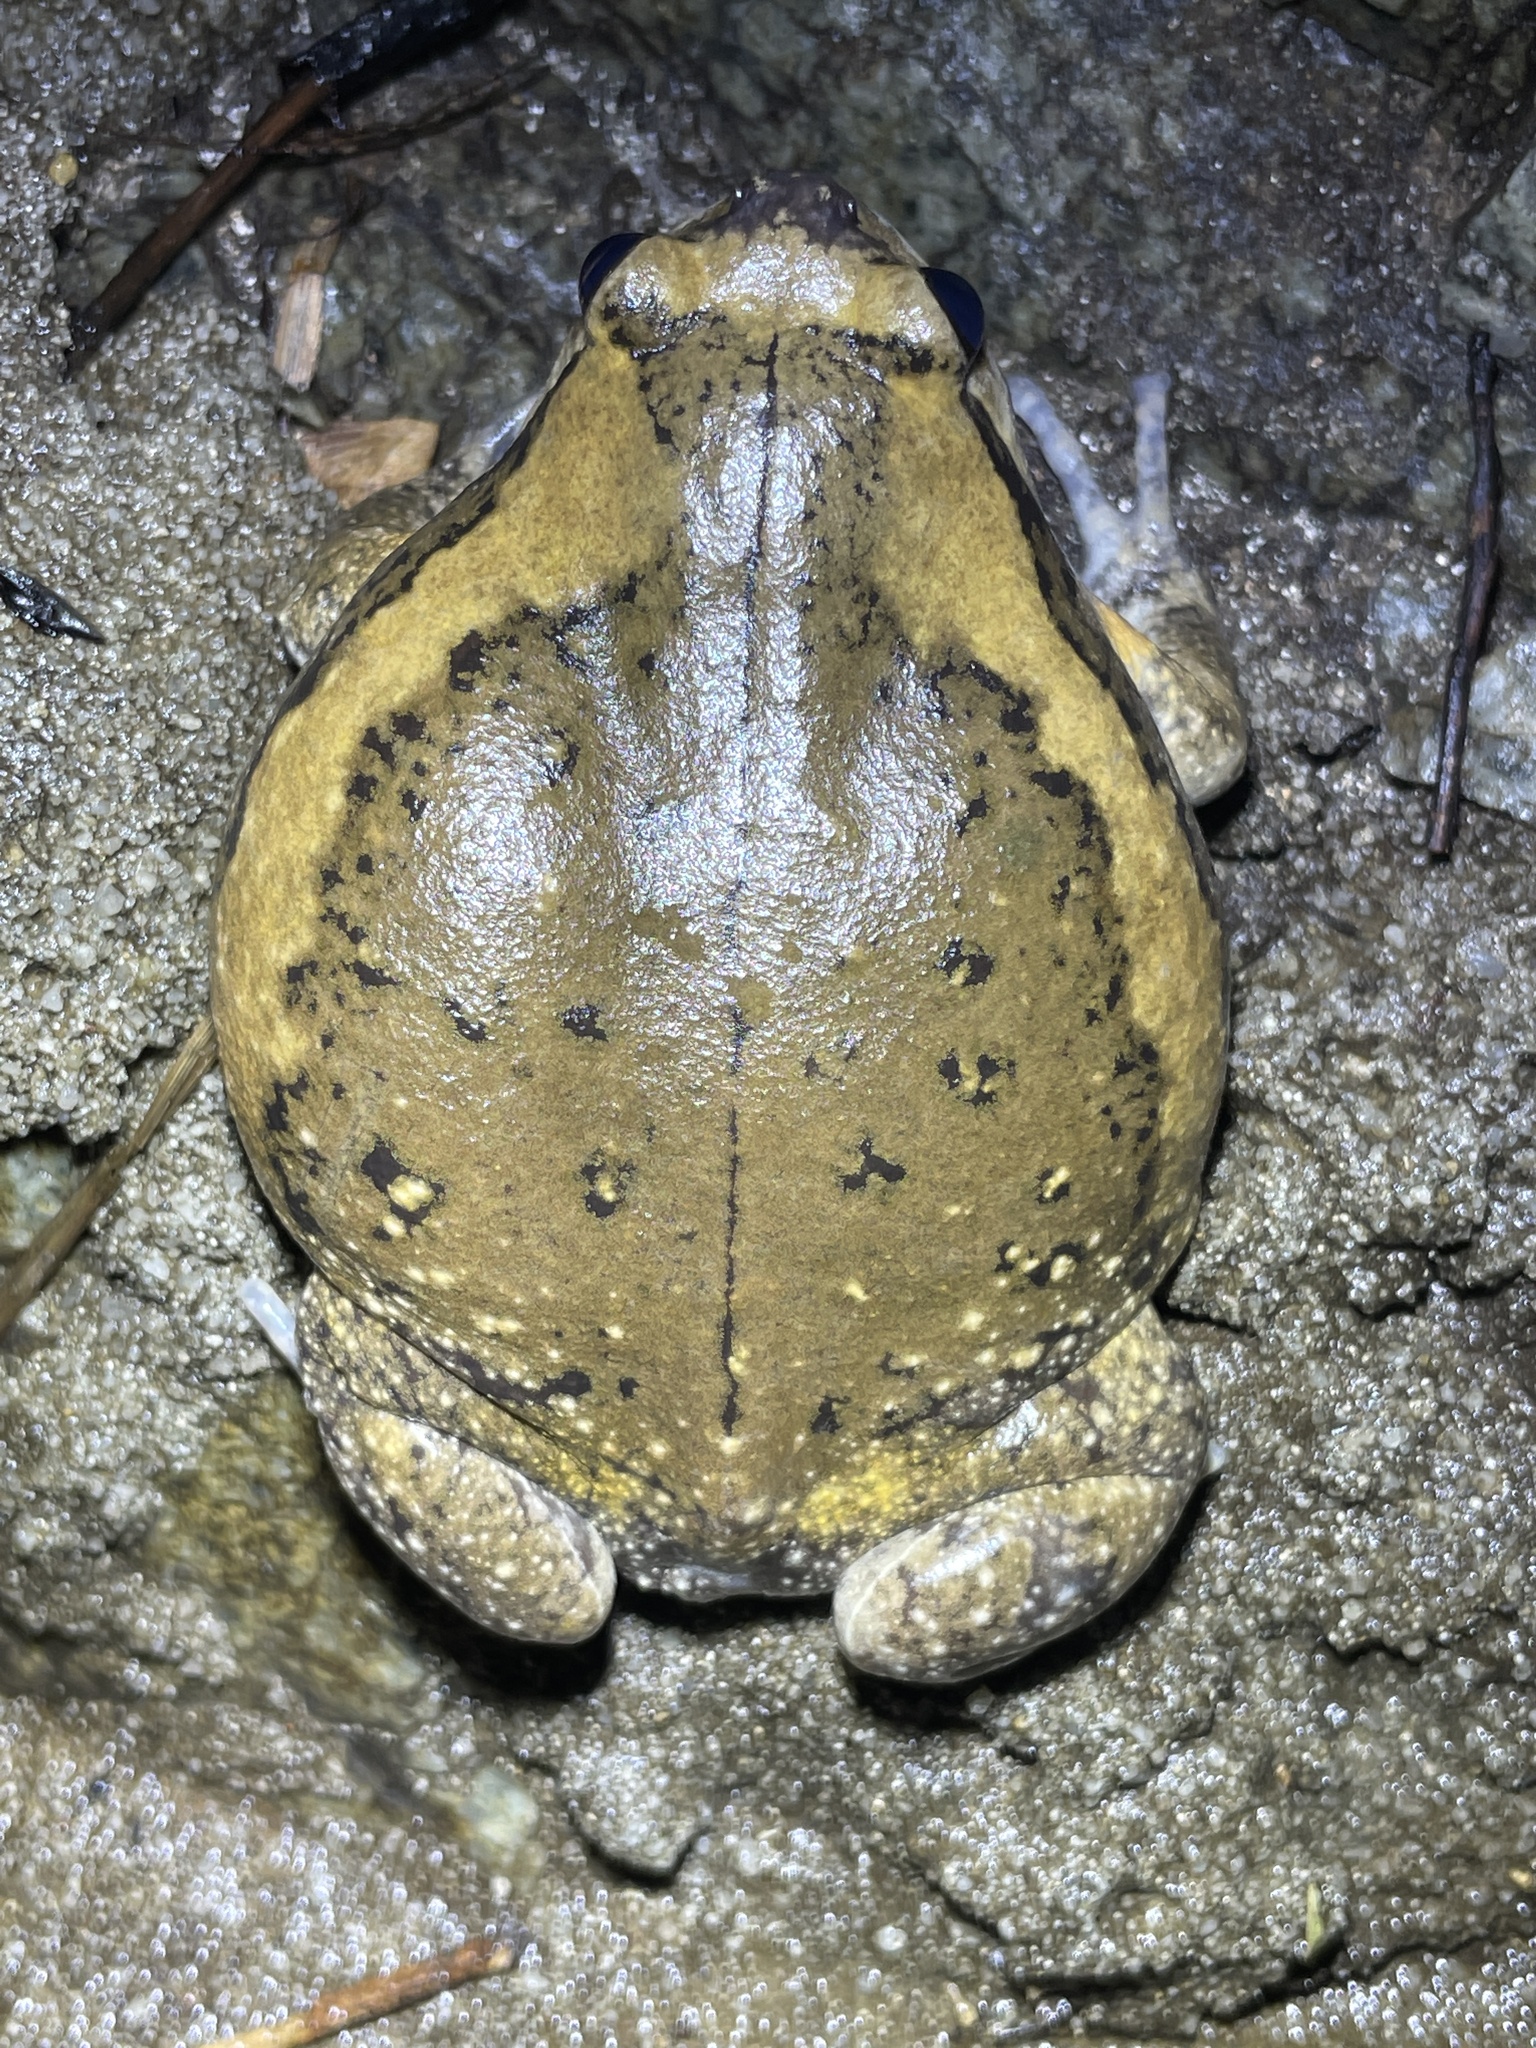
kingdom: Animalia
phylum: Chordata
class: Amphibia
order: Anura
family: Microhylidae
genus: Kaloula
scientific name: Kaloula pulchra
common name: Common,banded bullfrog
